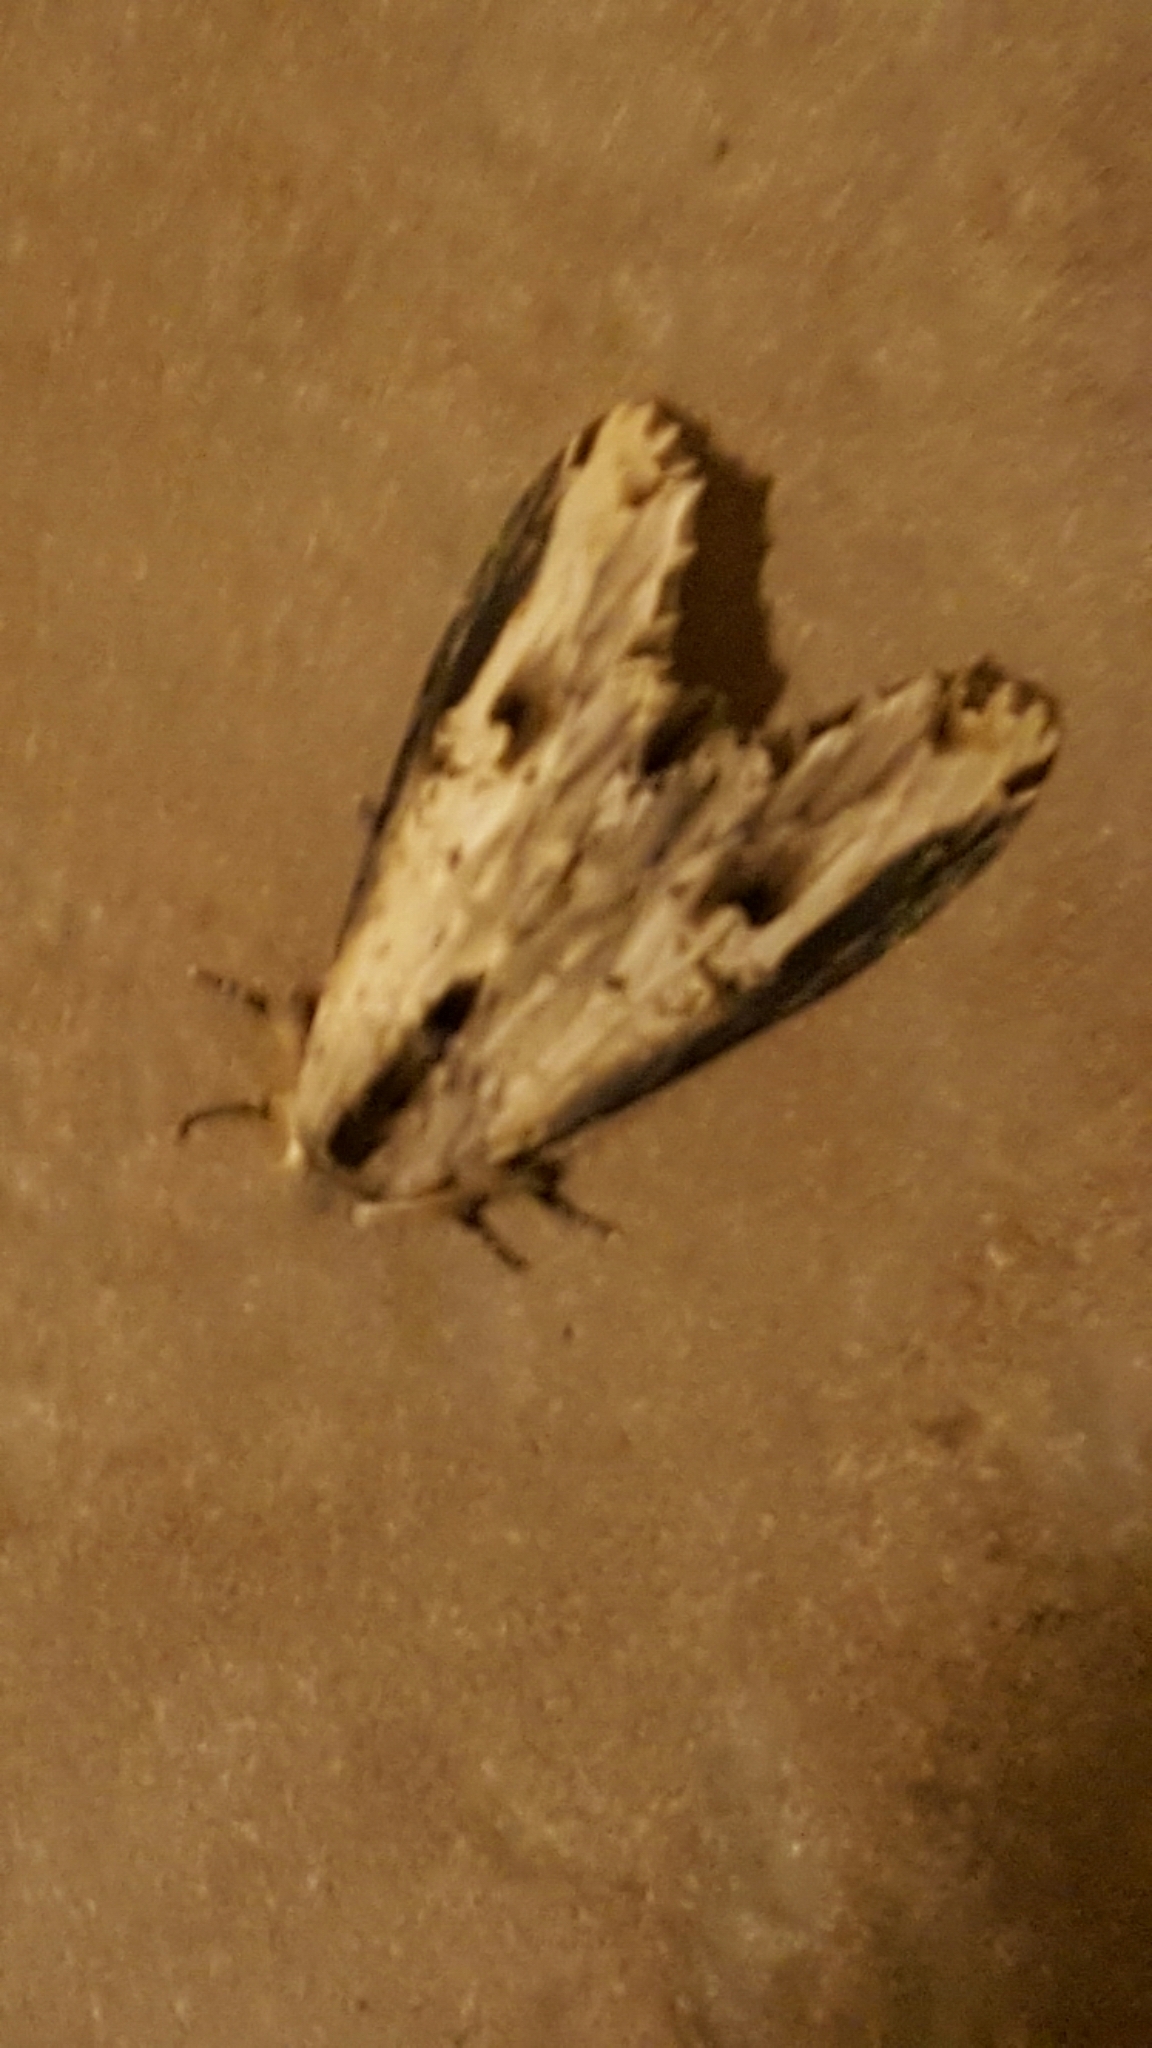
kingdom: Animalia
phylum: Arthropoda
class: Insecta
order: Lepidoptera
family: Notodontidae
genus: Truncaptera
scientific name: Truncaptera mirabilis
